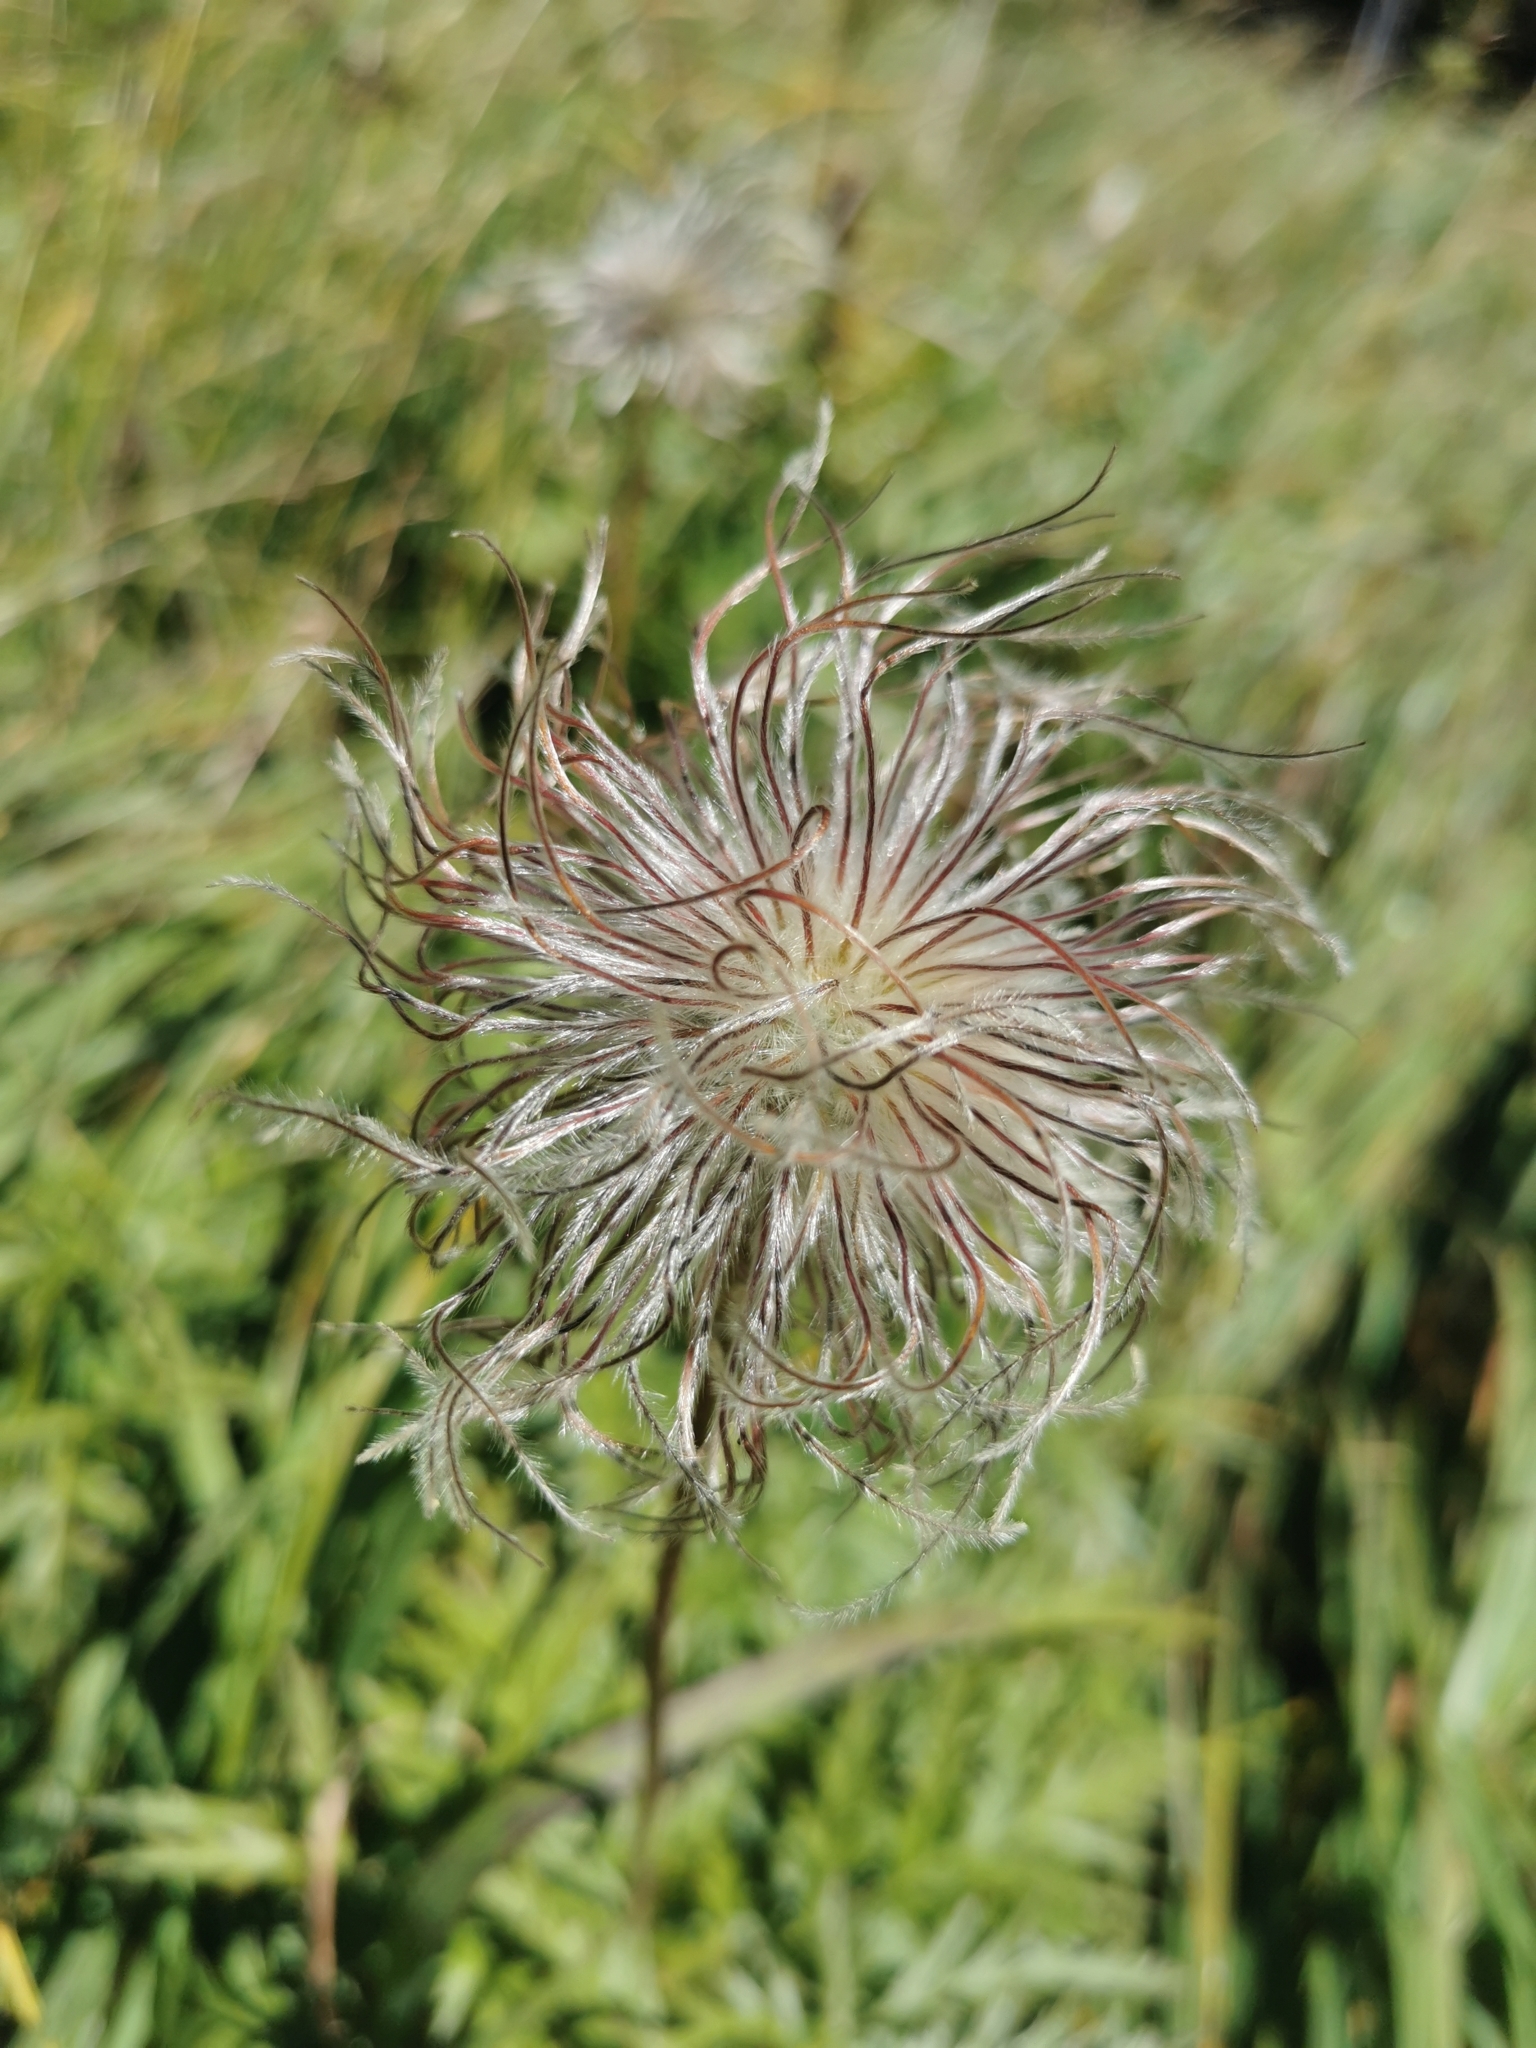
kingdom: Plantae
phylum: Tracheophyta
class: Magnoliopsida
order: Ranunculales
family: Ranunculaceae
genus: Pulsatilla
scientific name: Pulsatilla alpina
